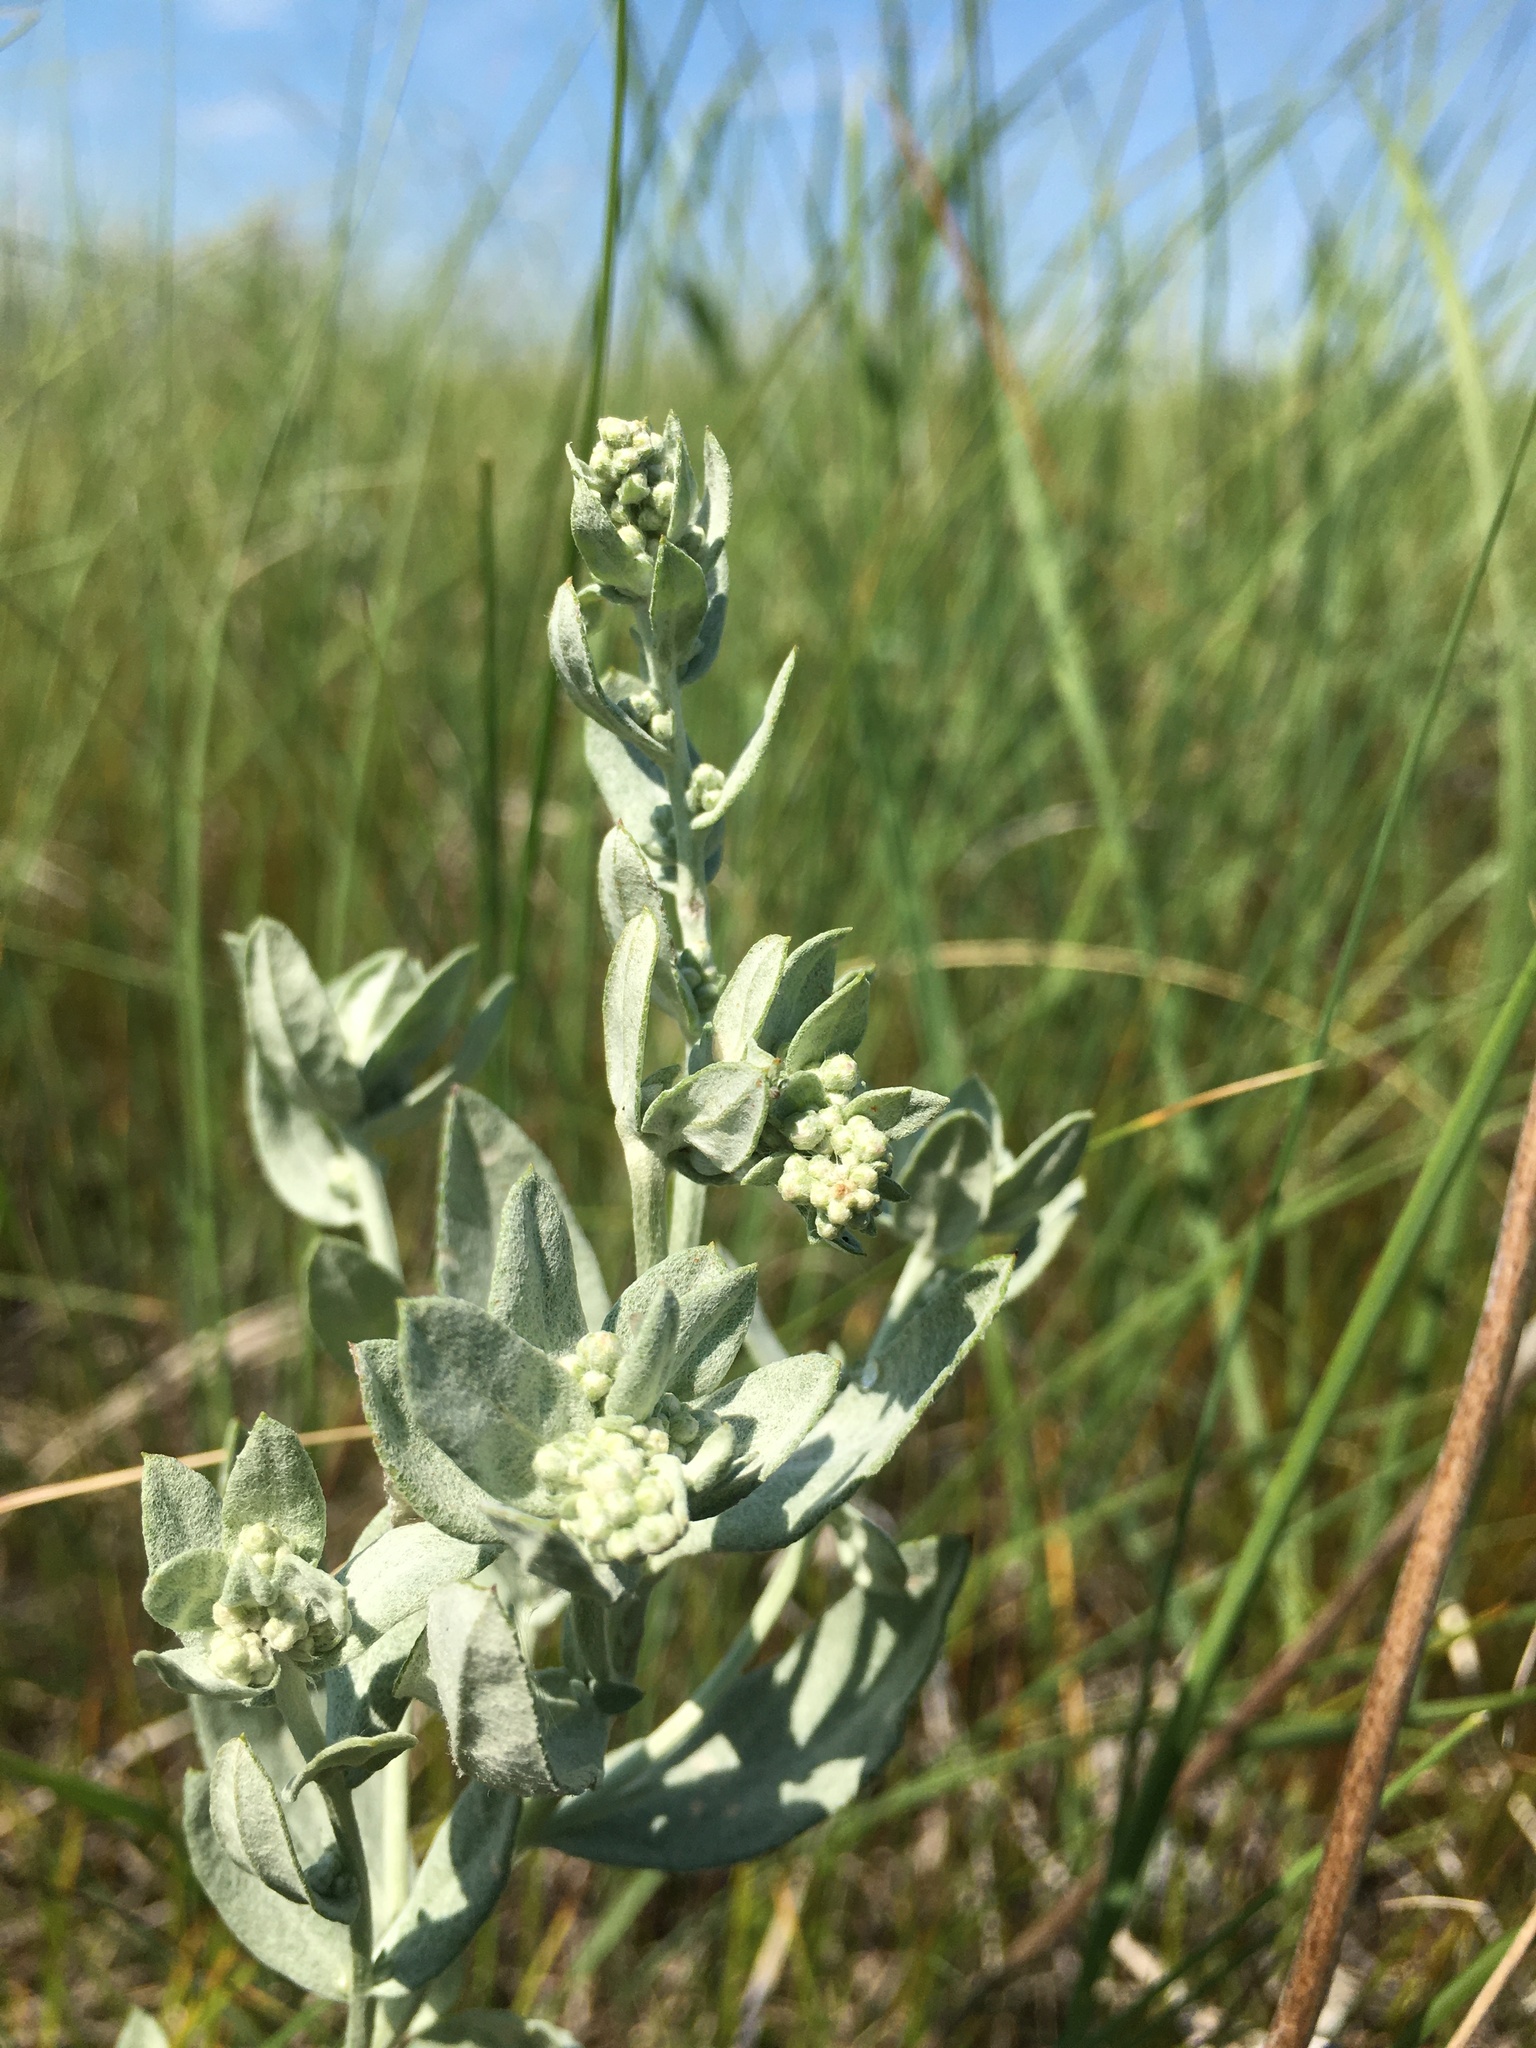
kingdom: Plantae
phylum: Tracheophyta
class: Magnoliopsida
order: Asterales
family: Asteraceae
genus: Artemisia
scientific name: Artemisia ludoviciana
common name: Western mugwort
